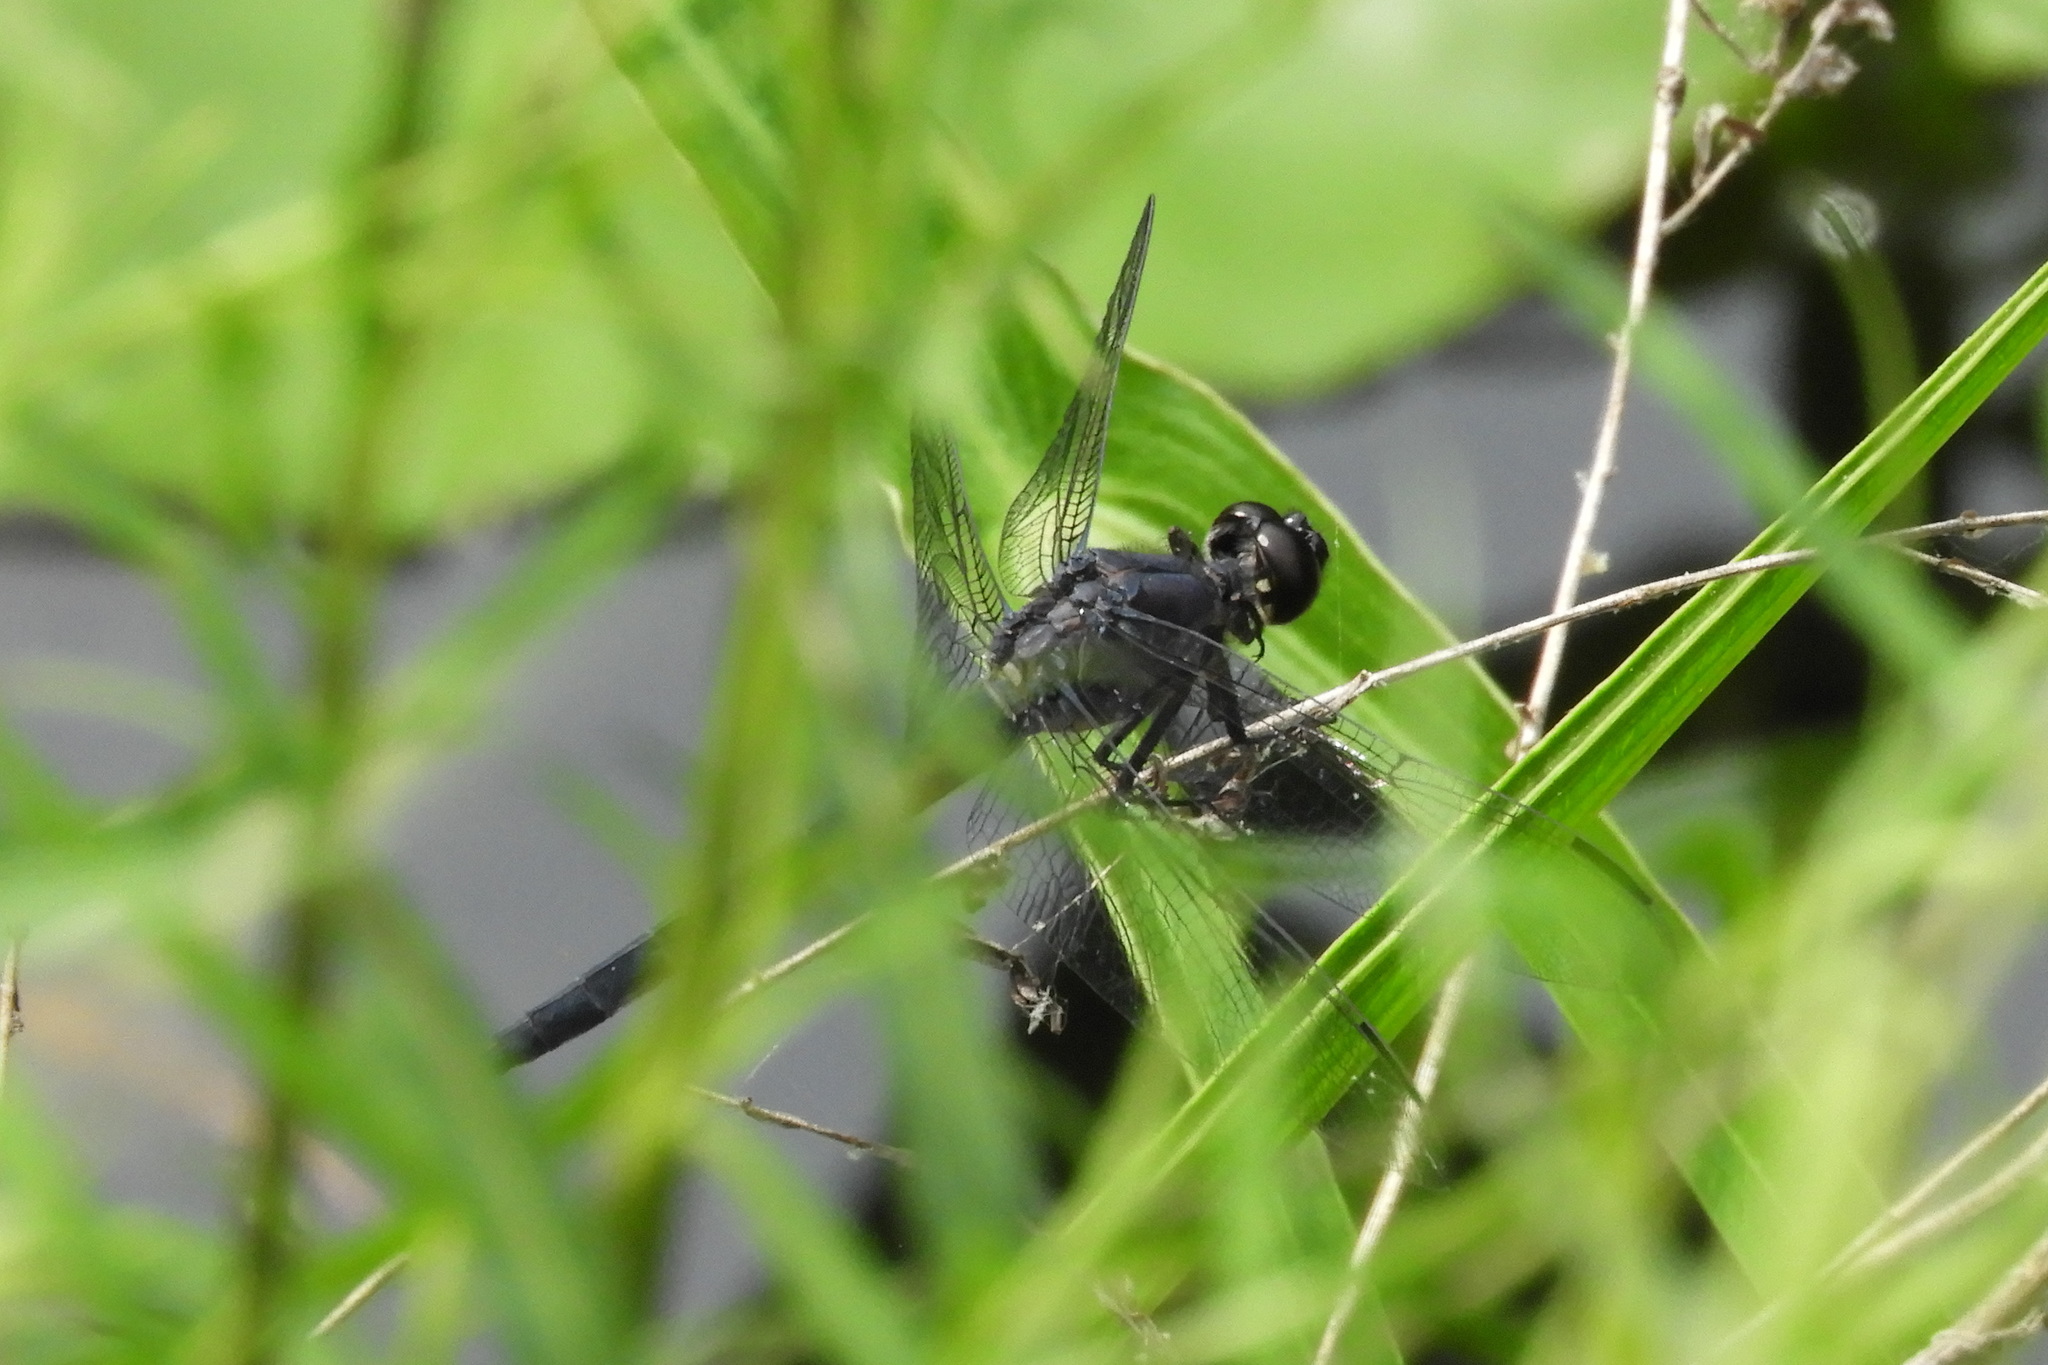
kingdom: Animalia
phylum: Arthropoda
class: Insecta
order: Odonata
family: Libellulidae
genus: Libellula
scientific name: Libellula incesta
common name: Slaty skimmer
